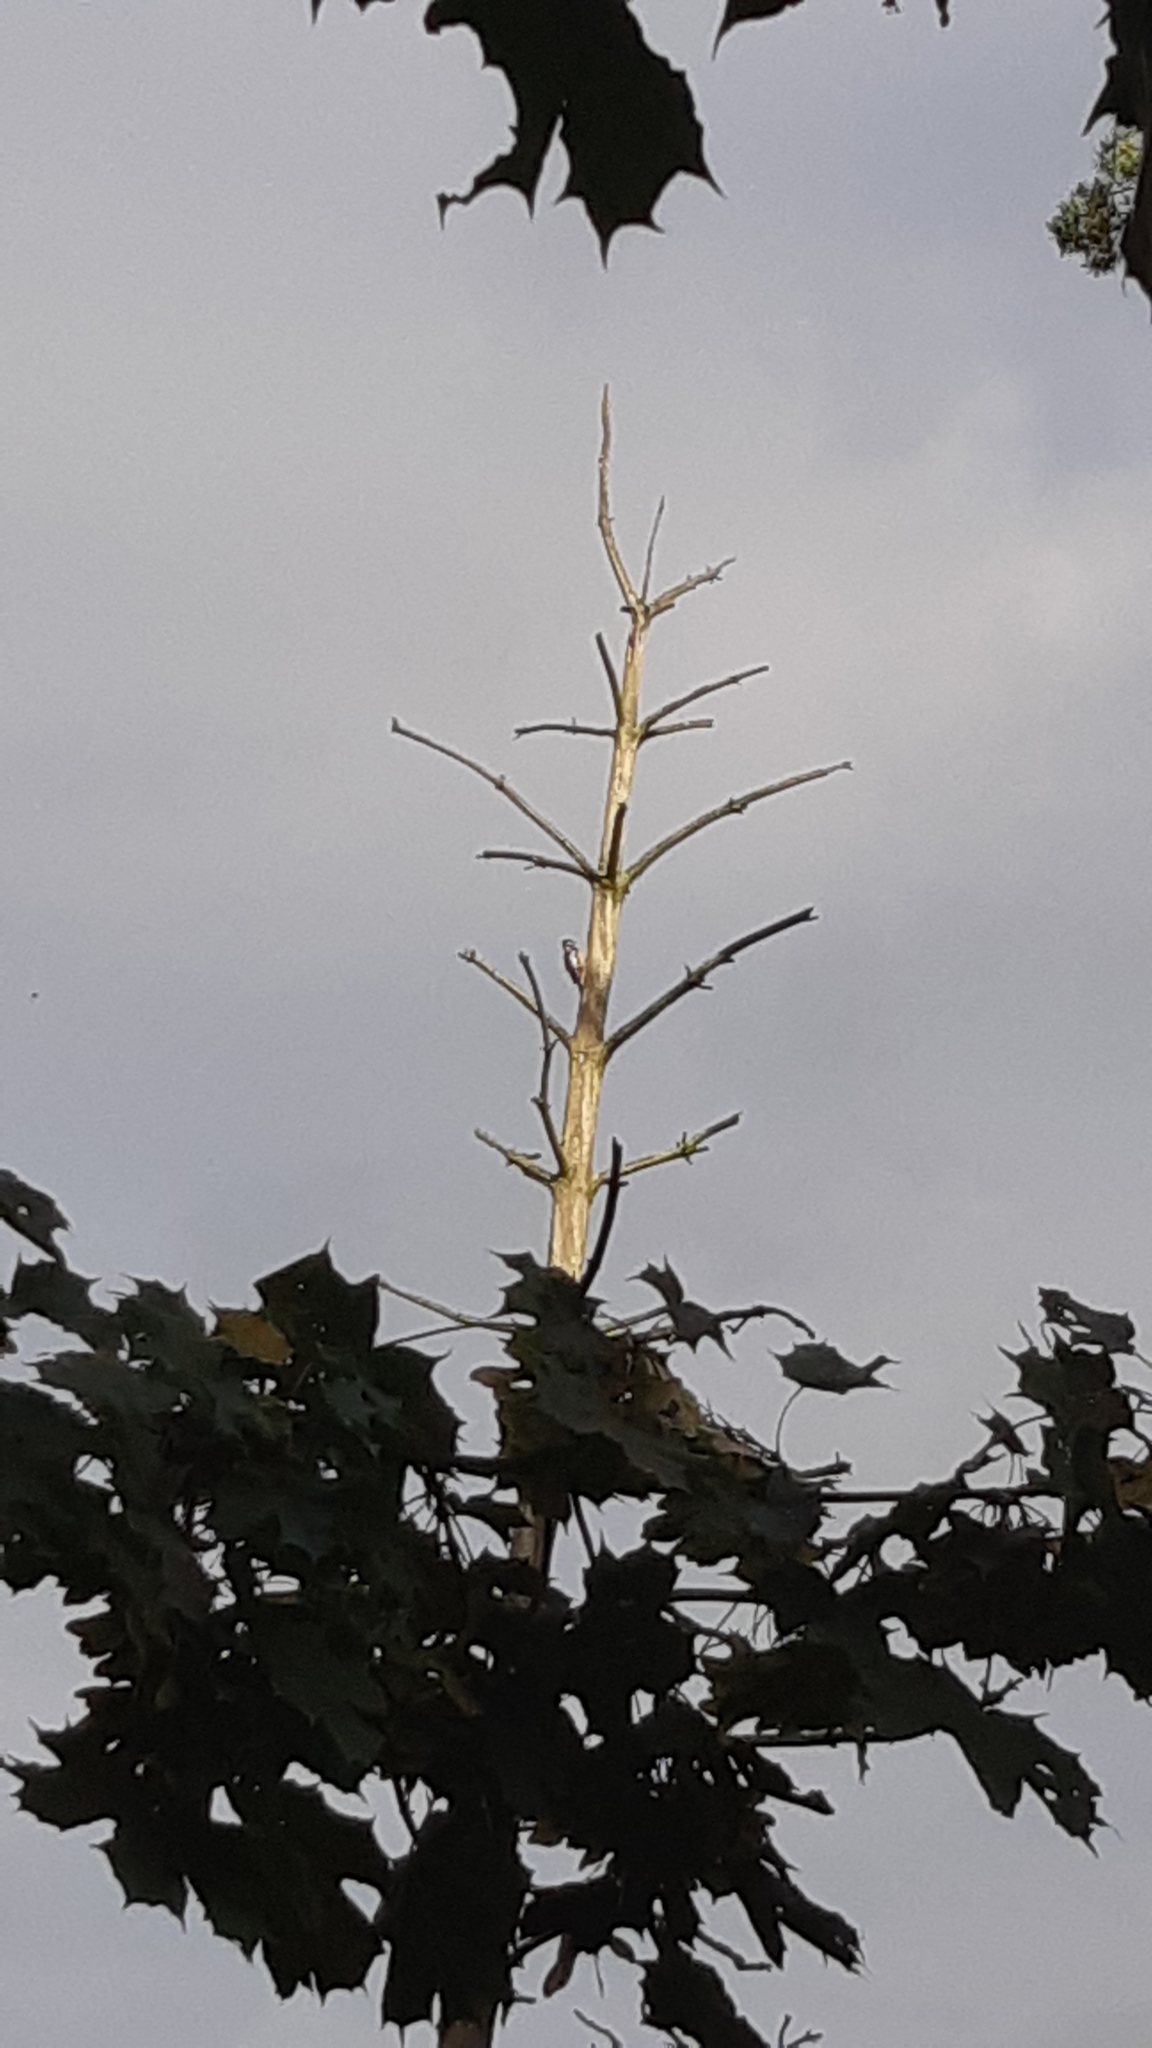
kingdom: Animalia
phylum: Chordata
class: Aves
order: Piciformes
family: Picidae
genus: Dendrocopos
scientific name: Dendrocopos major
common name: Great spotted woodpecker
